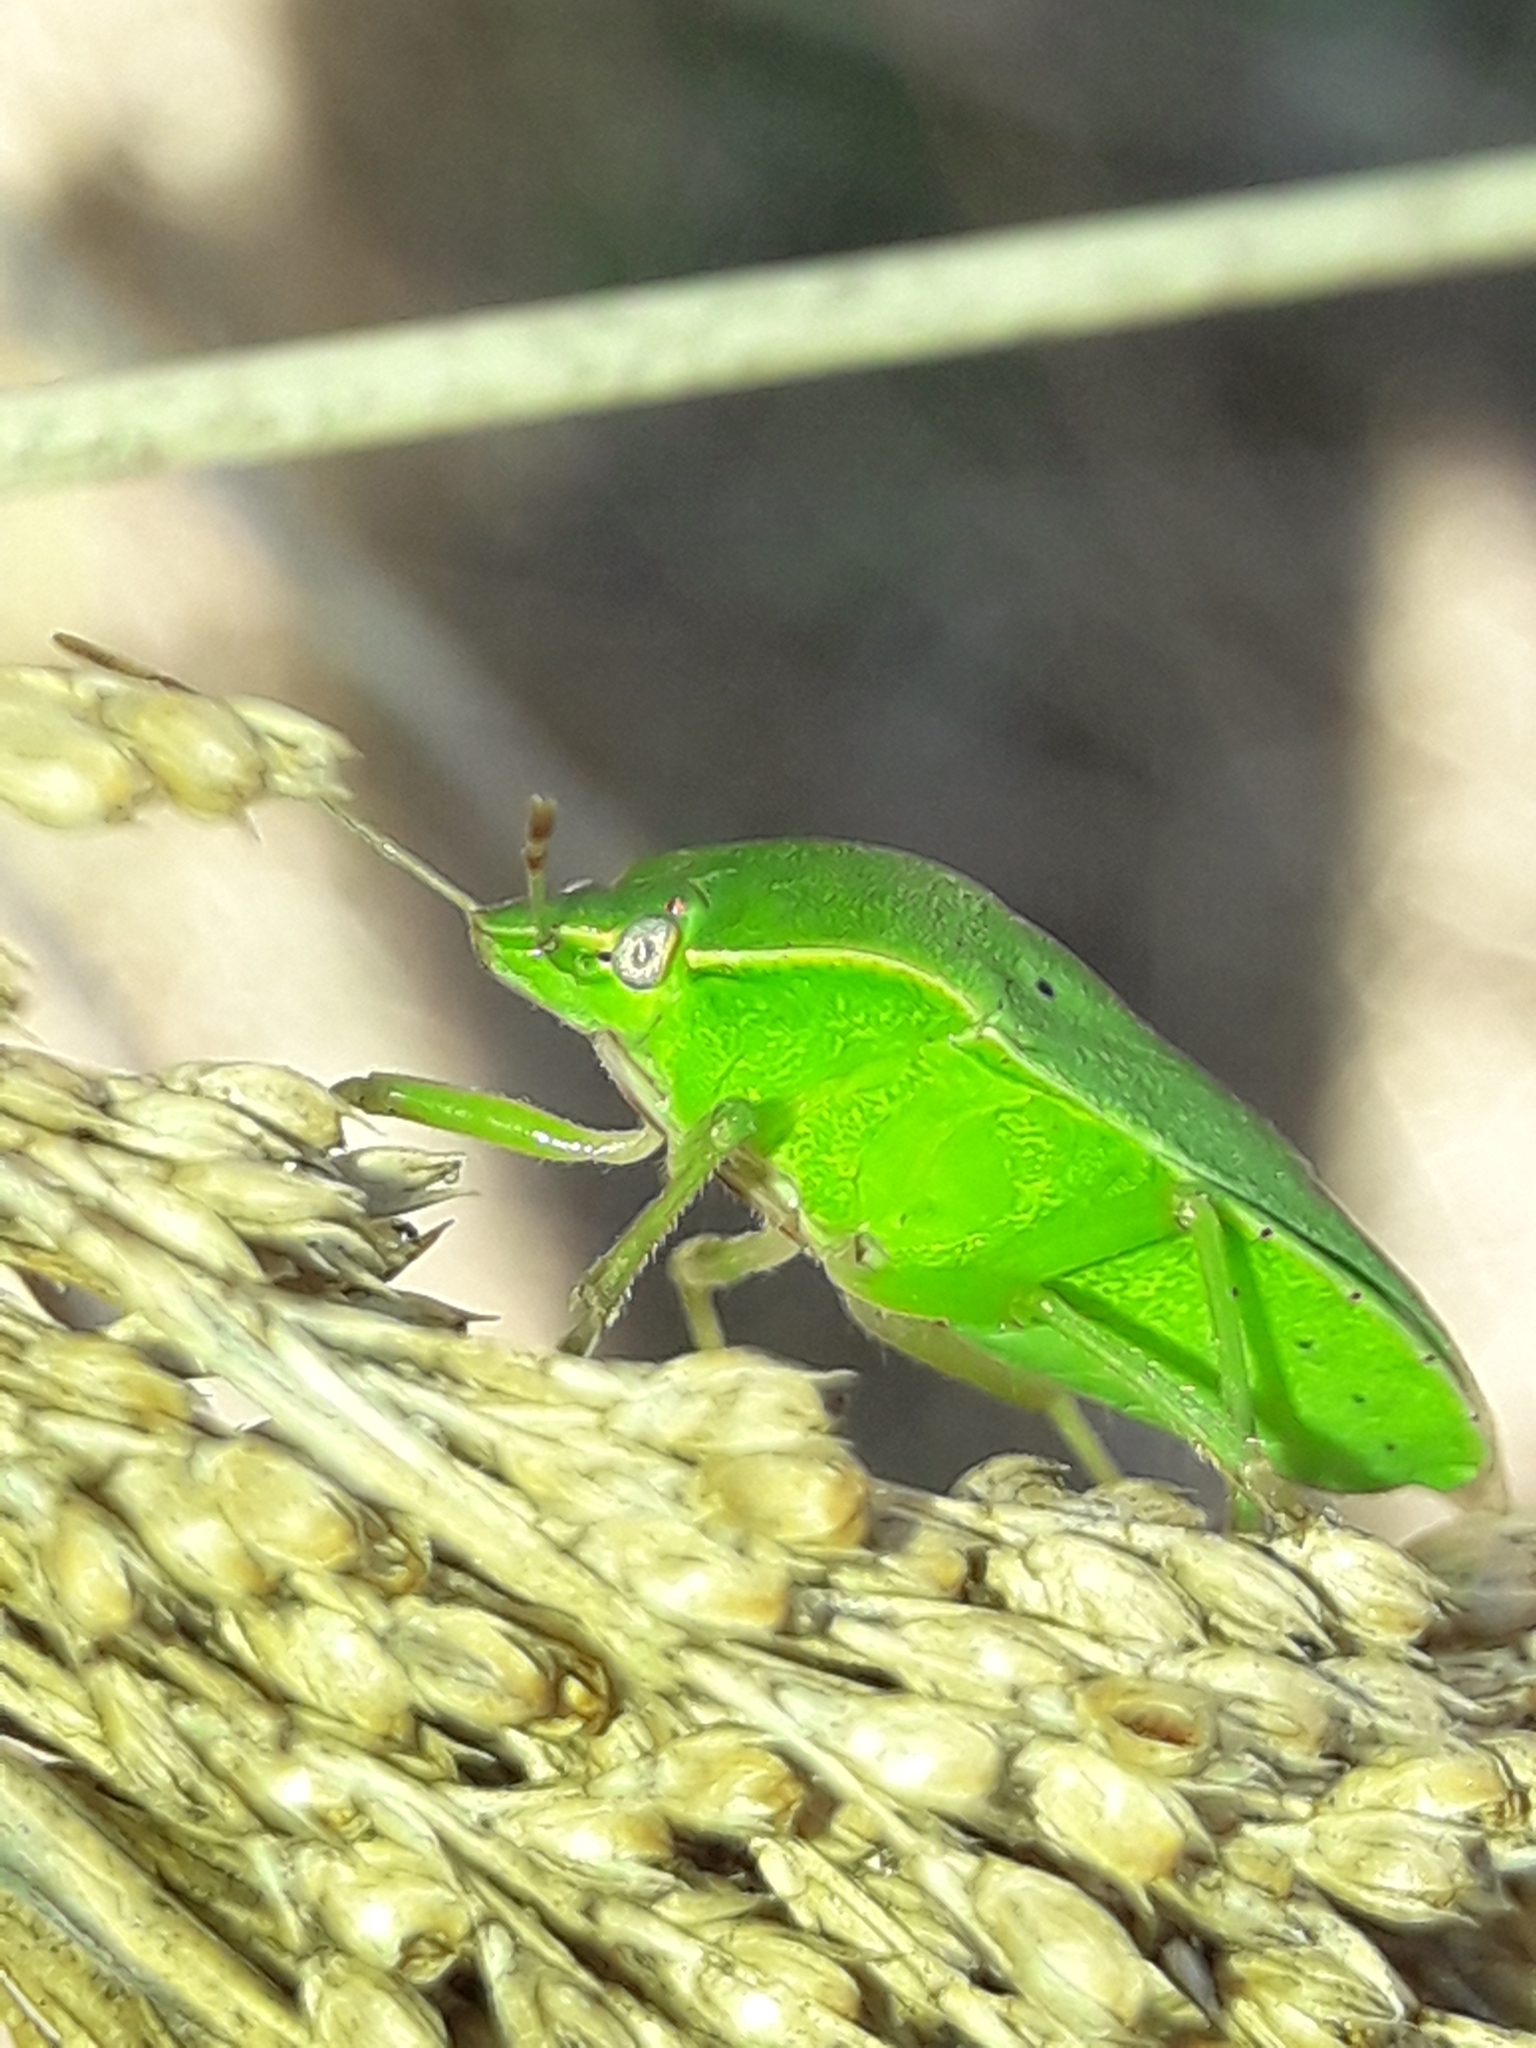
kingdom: Animalia
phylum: Arthropoda
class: Insecta
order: Hemiptera
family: Pentatomidae
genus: Nezara
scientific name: Nezara viridula
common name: Southern green stink bug
